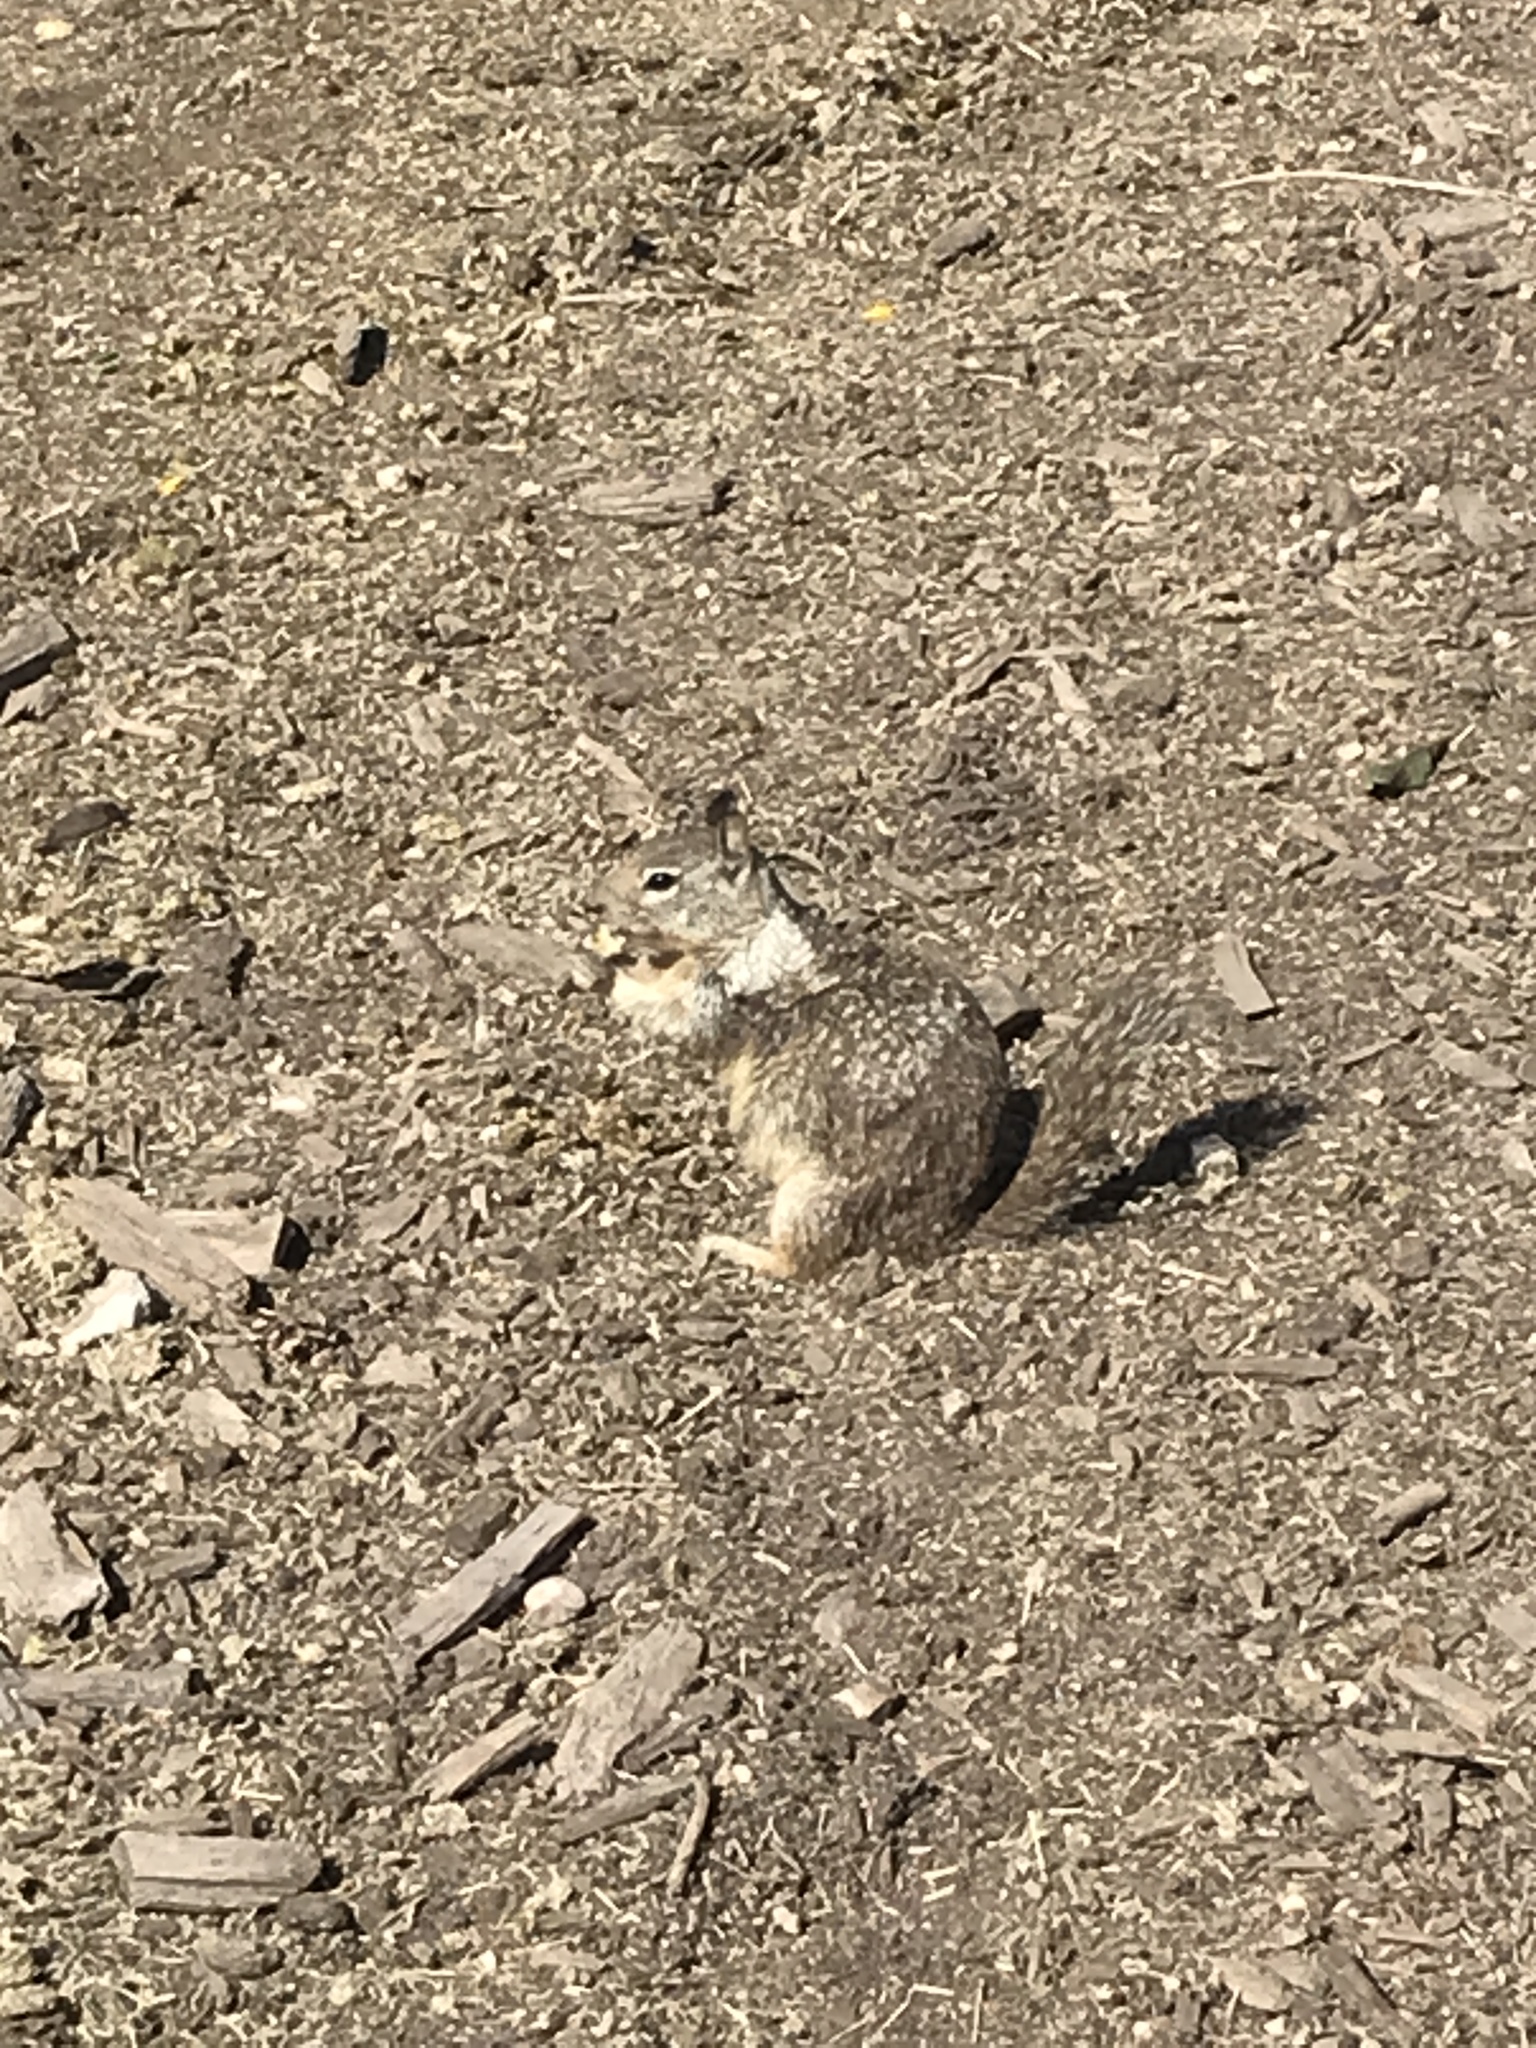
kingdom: Animalia
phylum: Chordata
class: Mammalia
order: Rodentia
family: Sciuridae
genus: Otospermophilus
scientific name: Otospermophilus beecheyi
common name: California ground squirrel
